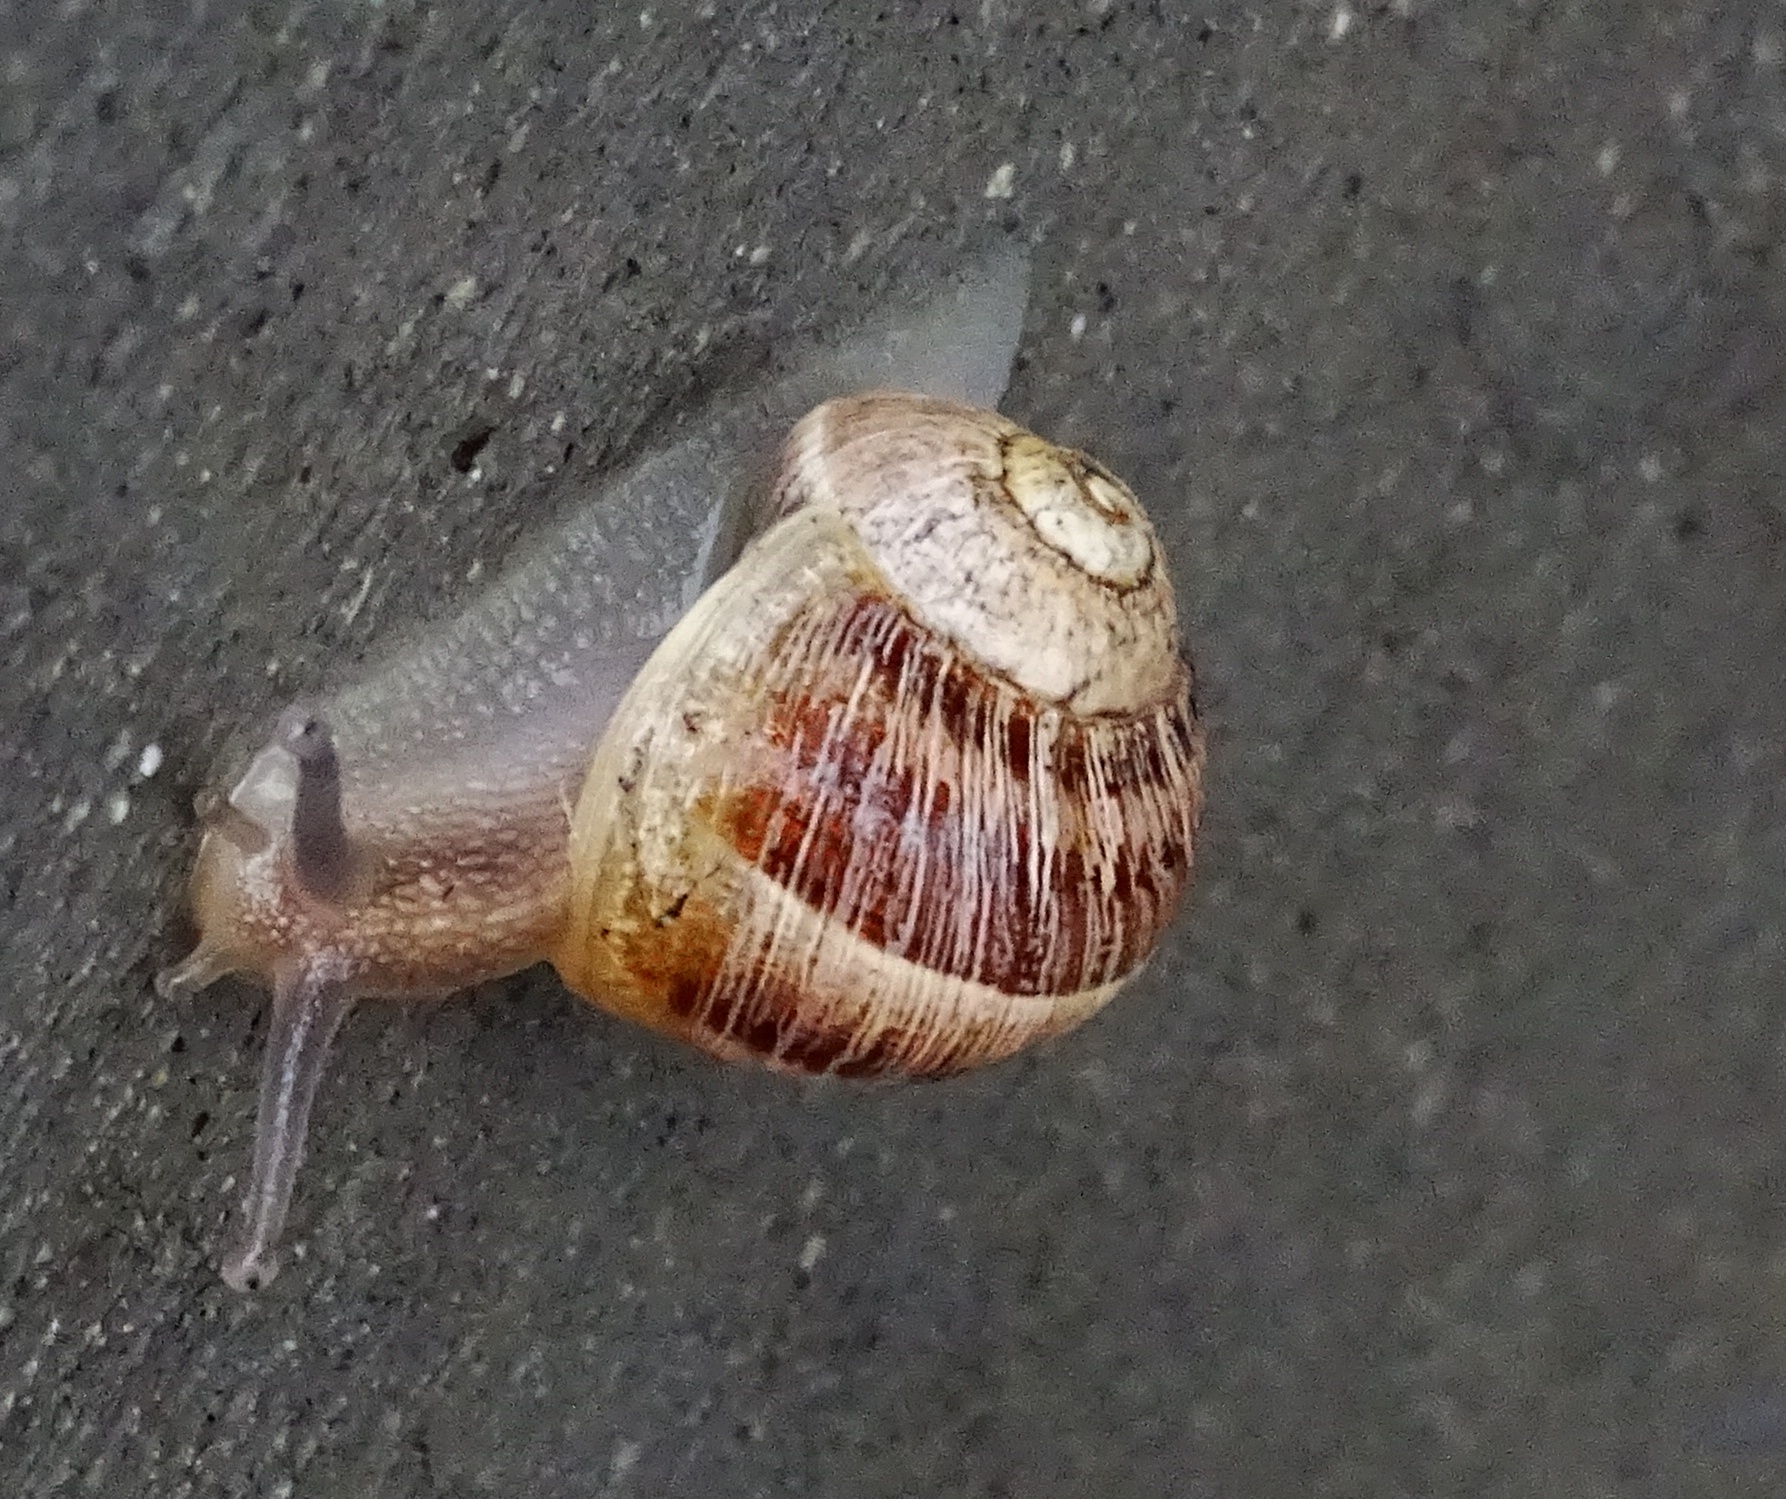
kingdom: Animalia
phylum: Mollusca
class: Gastropoda
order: Stylommatophora
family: Helicidae
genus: Cornu
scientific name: Cornu aspersum
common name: Brown garden snail
